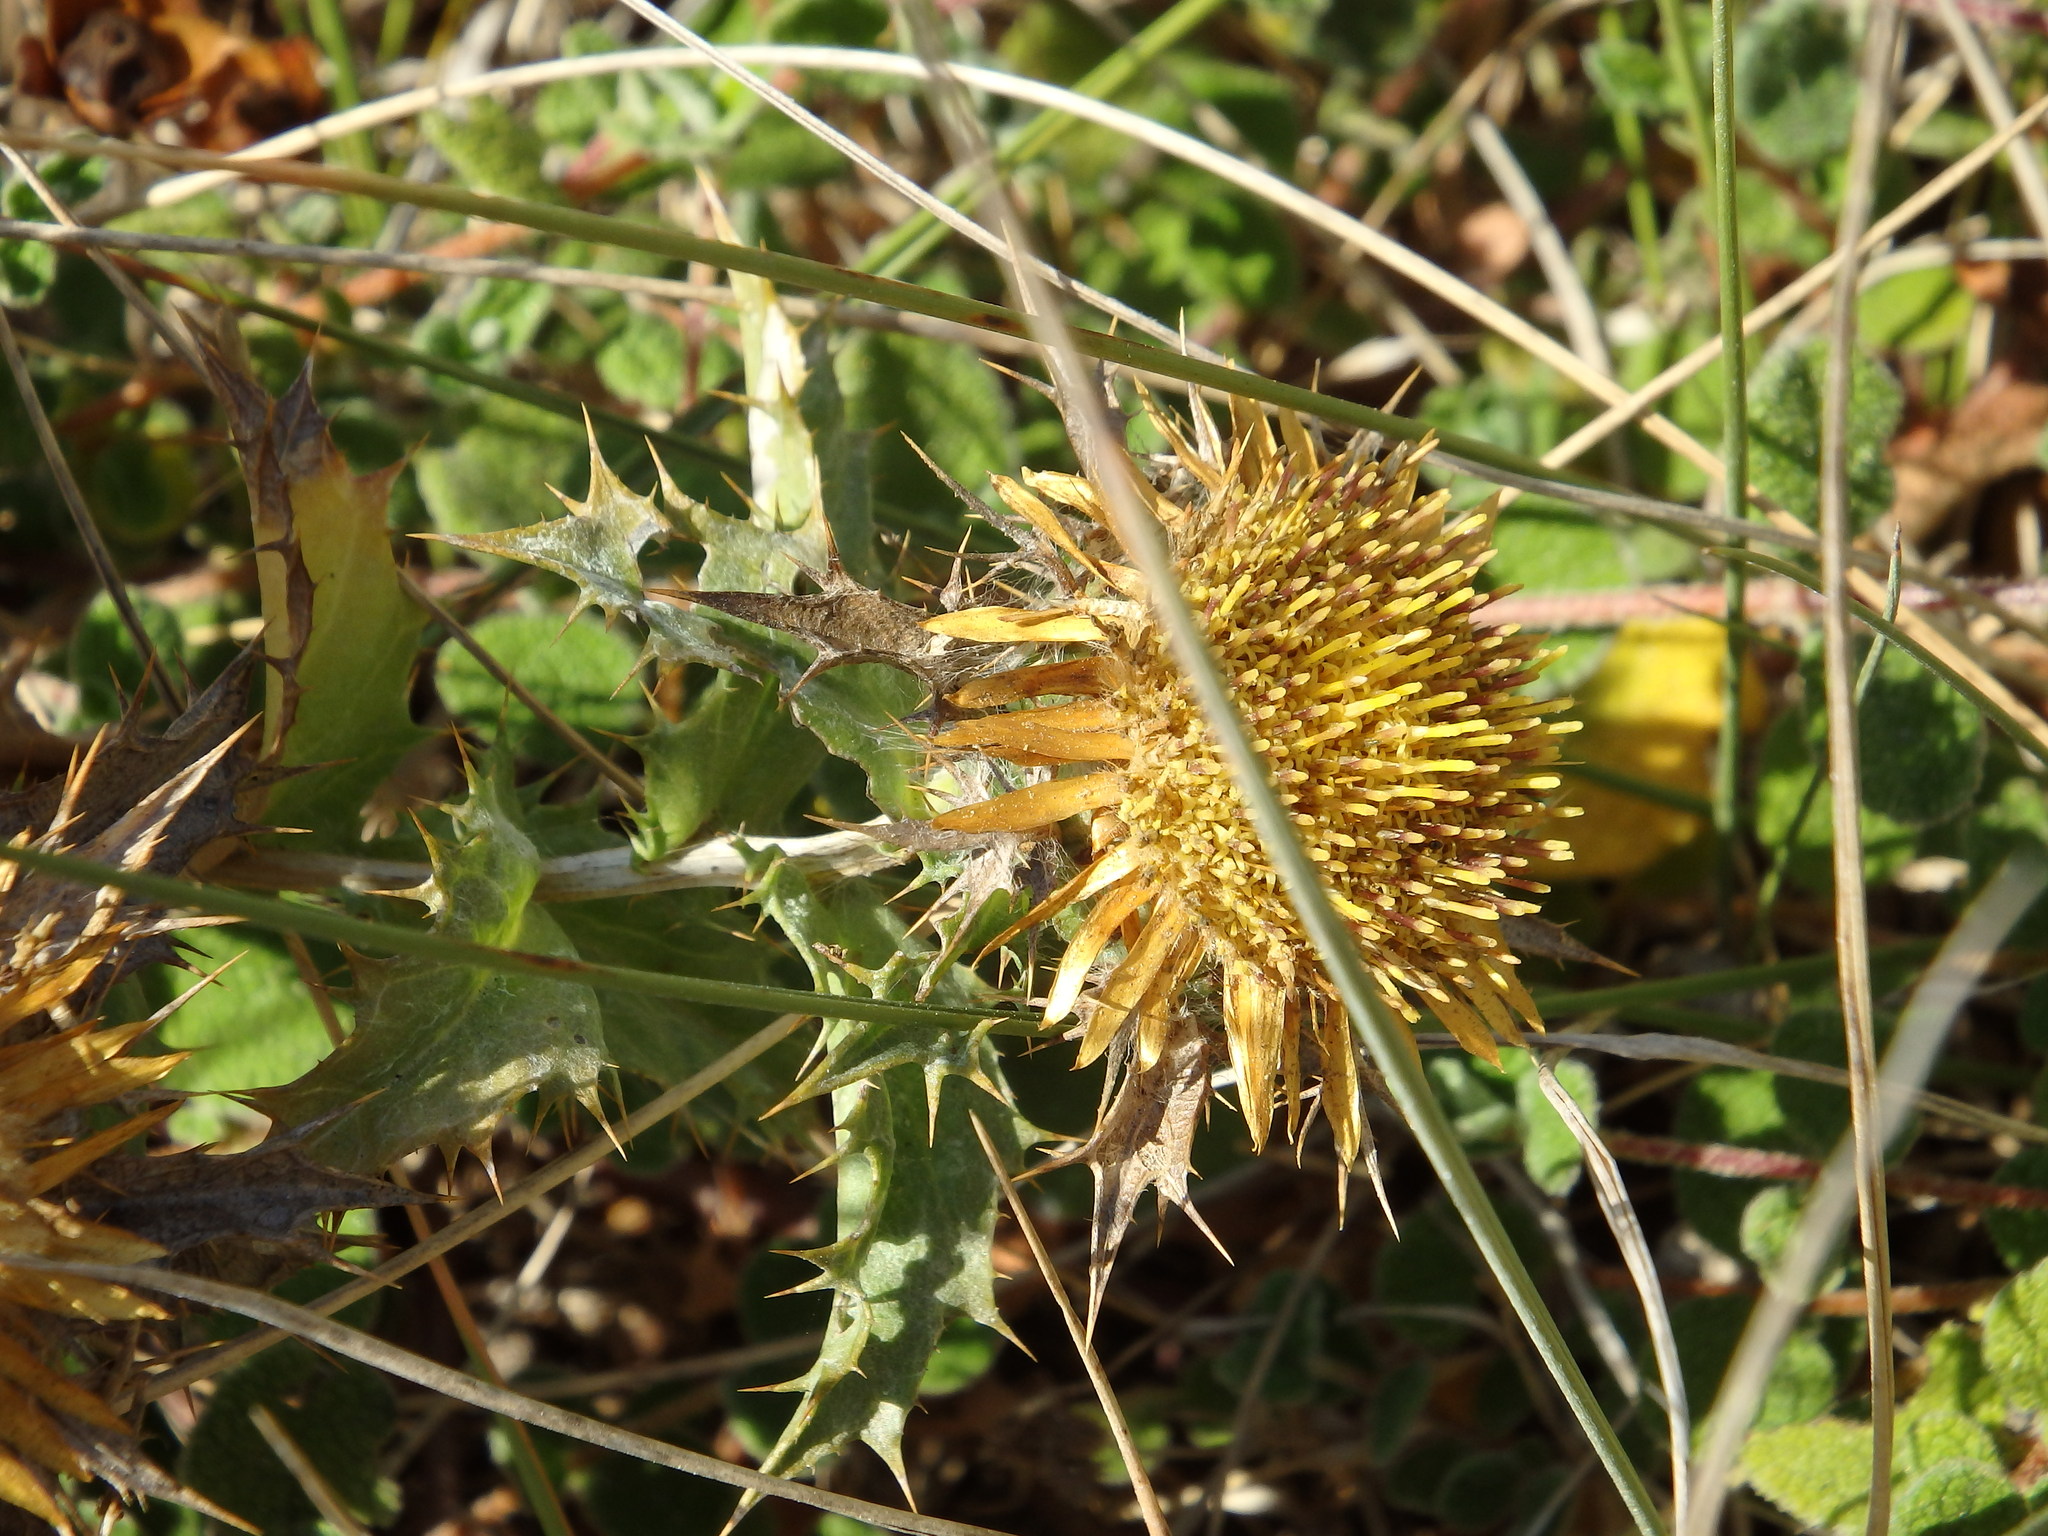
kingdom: Plantae
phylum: Tracheophyta
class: Magnoliopsida
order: Asterales
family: Asteraceae
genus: Carlina
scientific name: Carlina hispanica
